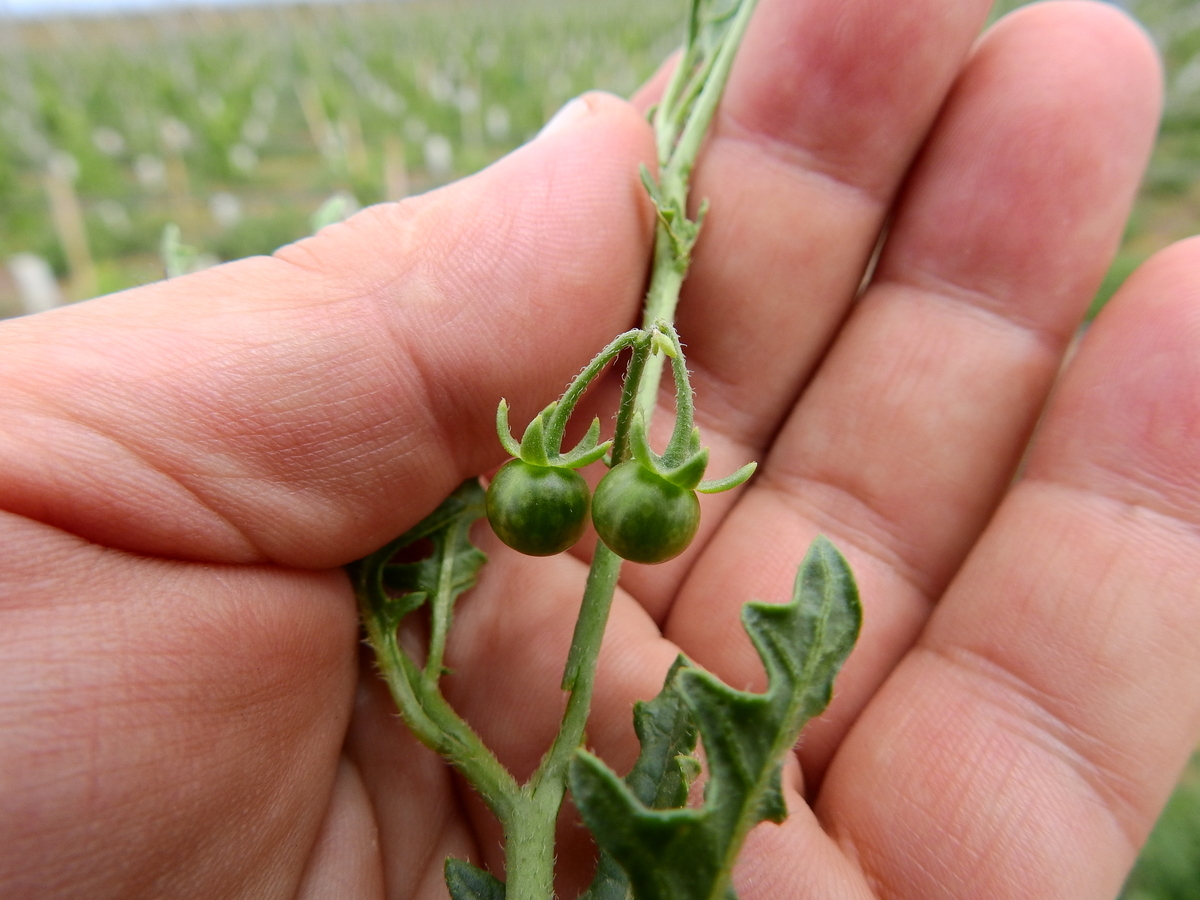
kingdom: Plantae
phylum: Tracheophyta
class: Magnoliopsida
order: Solanales
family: Solanaceae
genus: Solanum
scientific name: Solanum triflorum
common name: Small nightshade
